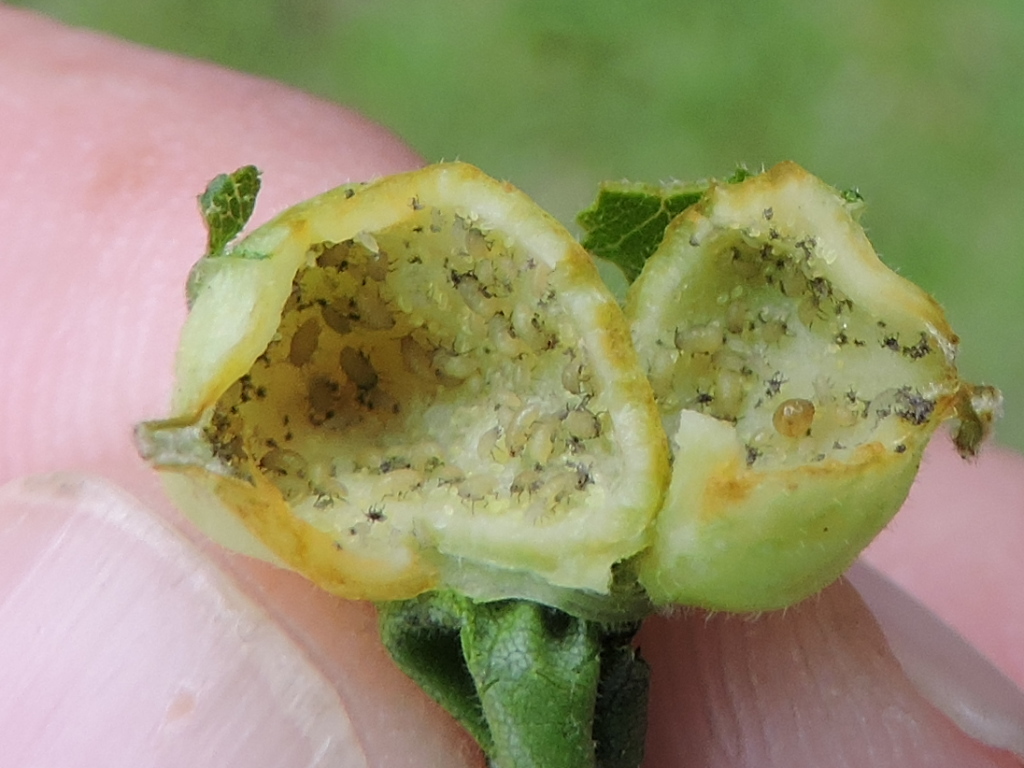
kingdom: Animalia
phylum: Arthropoda
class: Insecta
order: Hemiptera
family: Phylloxeridae
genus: Daktulosphaira
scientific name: Daktulosphaira notabilis
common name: Pecan leaf phylloxera
